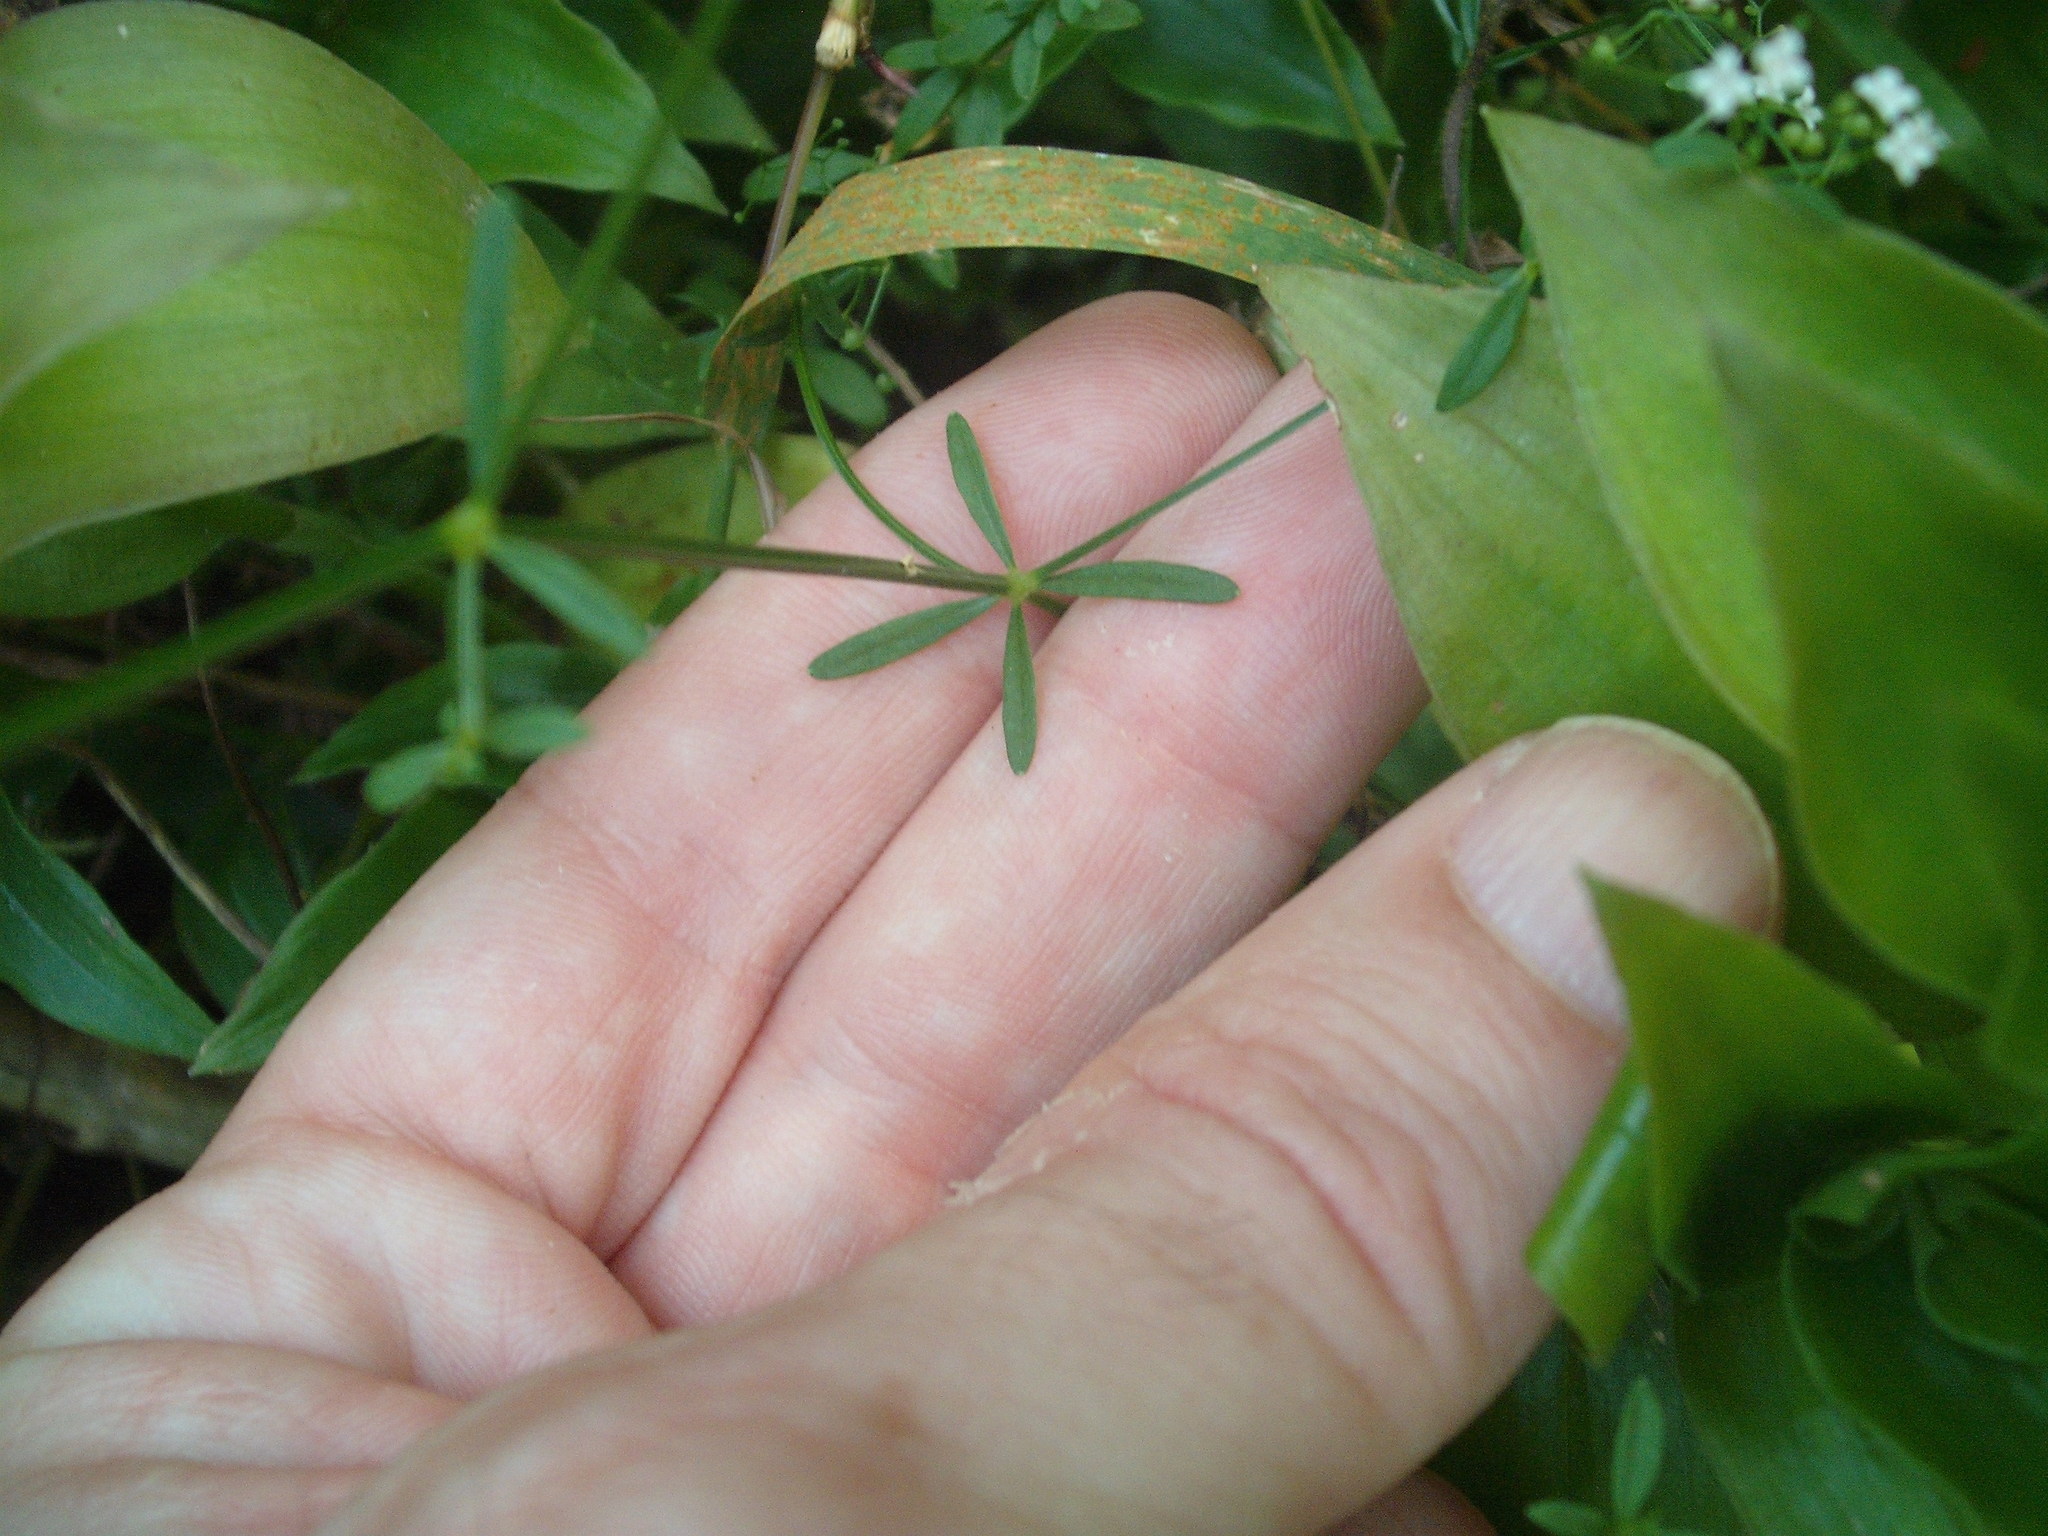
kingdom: Plantae
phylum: Tracheophyta
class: Magnoliopsida
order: Gentianales
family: Rubiaceae
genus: Galium
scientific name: Galium palustre
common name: Common marsh-bedstraw
